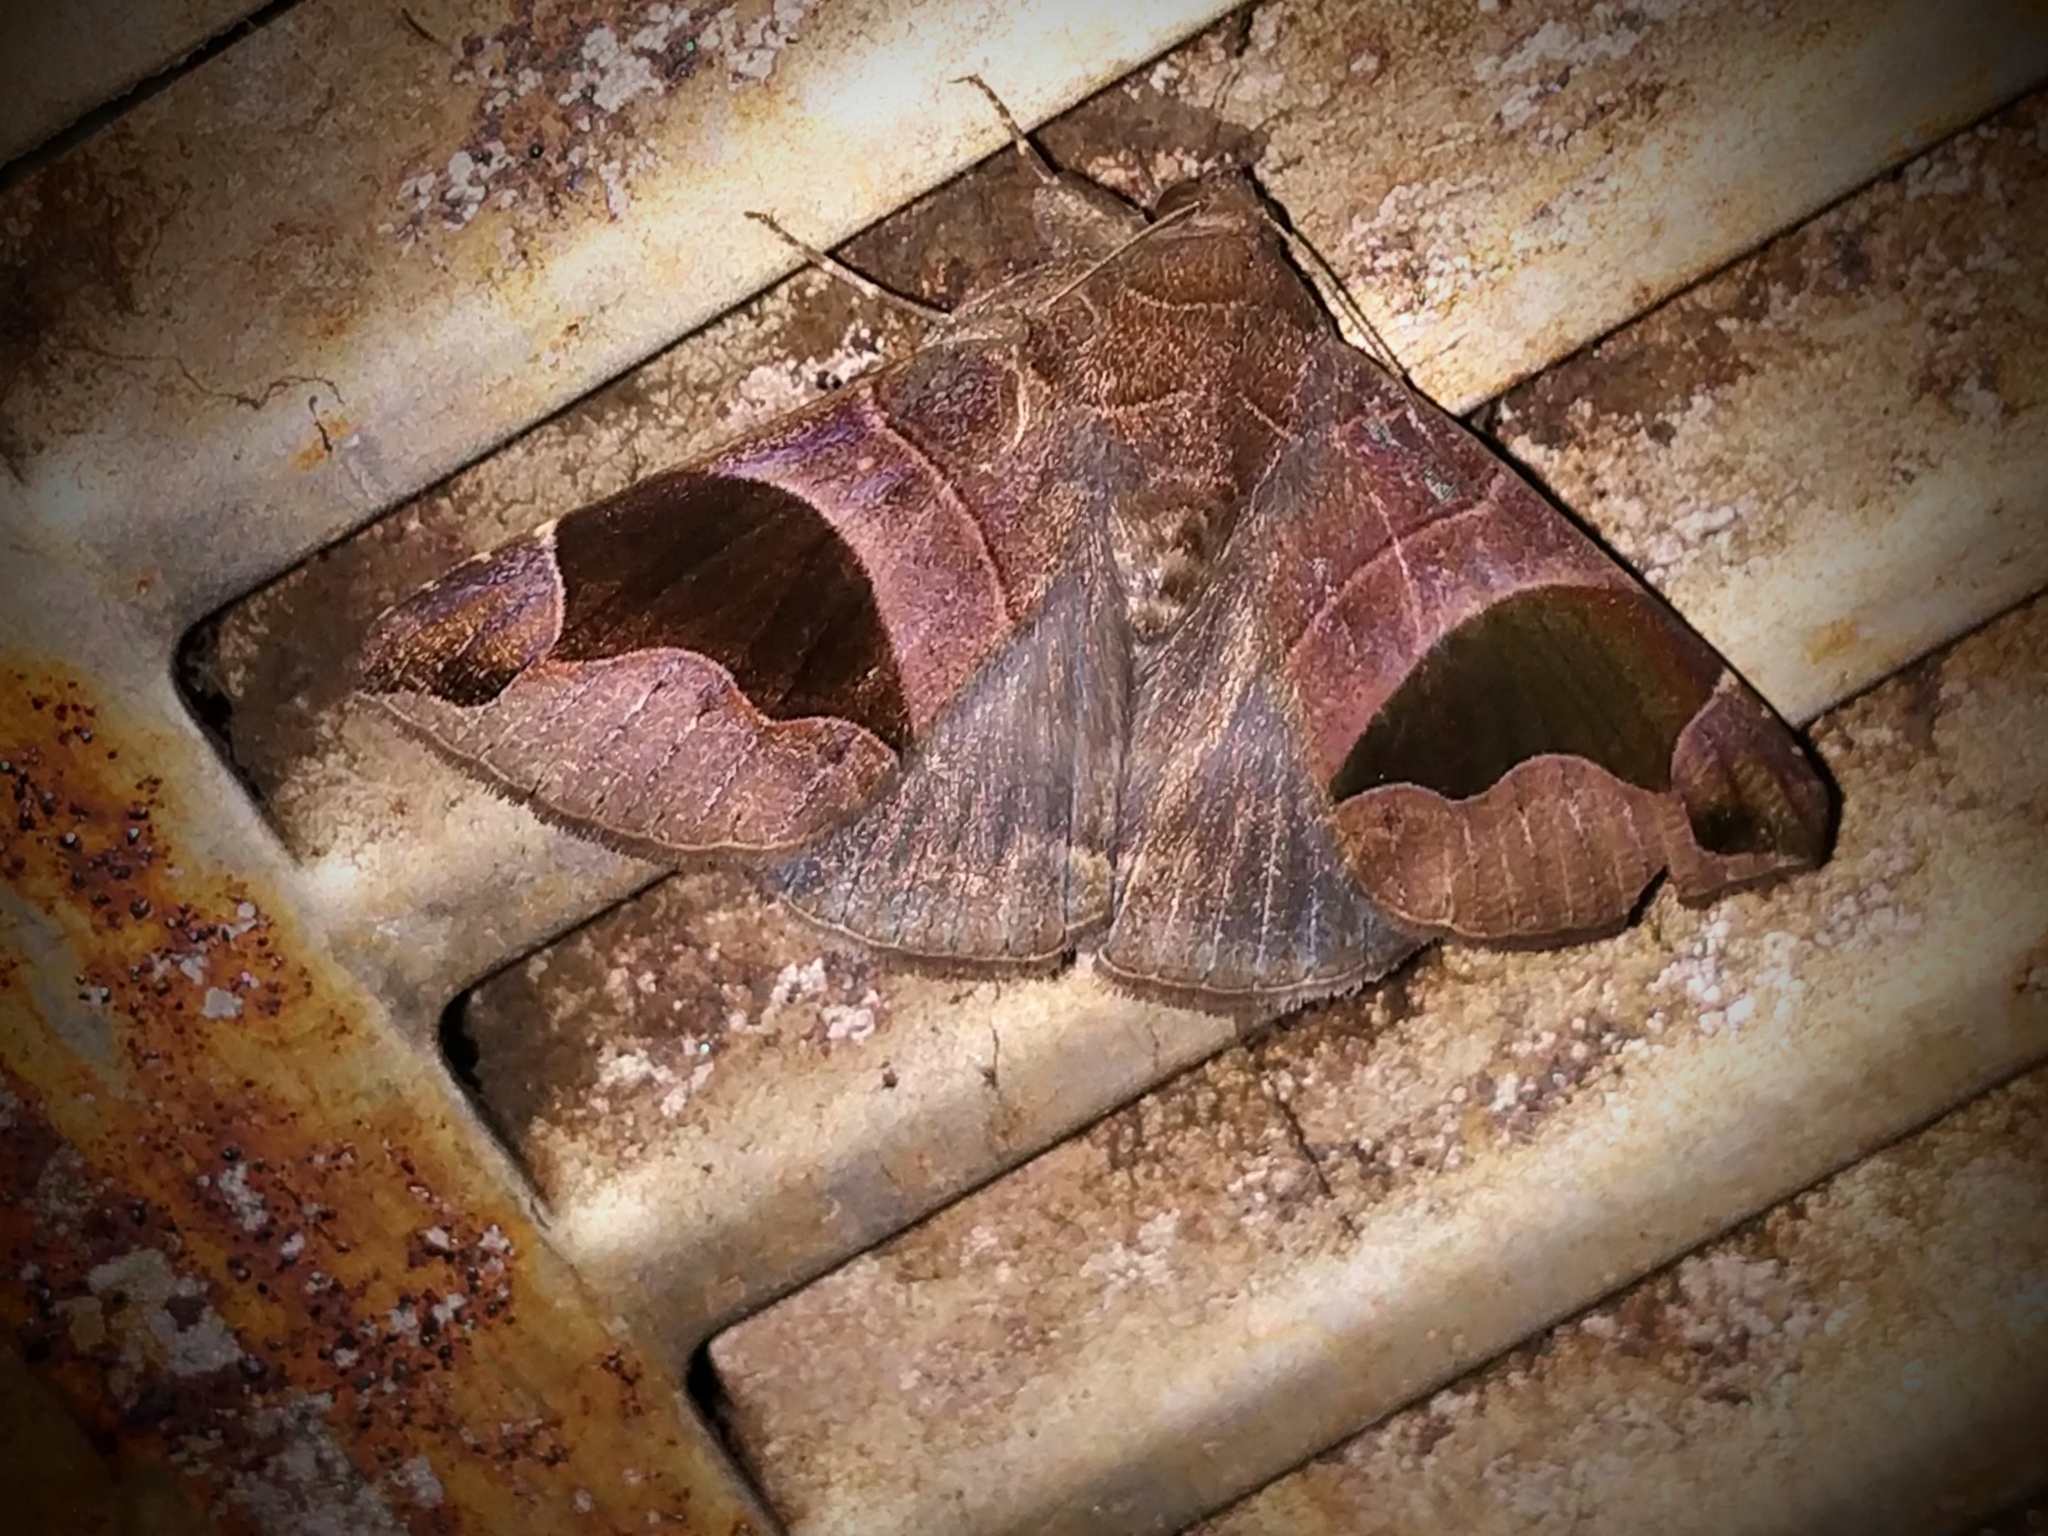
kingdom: Animalia
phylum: Arthropoda
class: Insecta
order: Lepidoptera
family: Erebidae
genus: Bastilla
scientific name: Bastilla joviana
